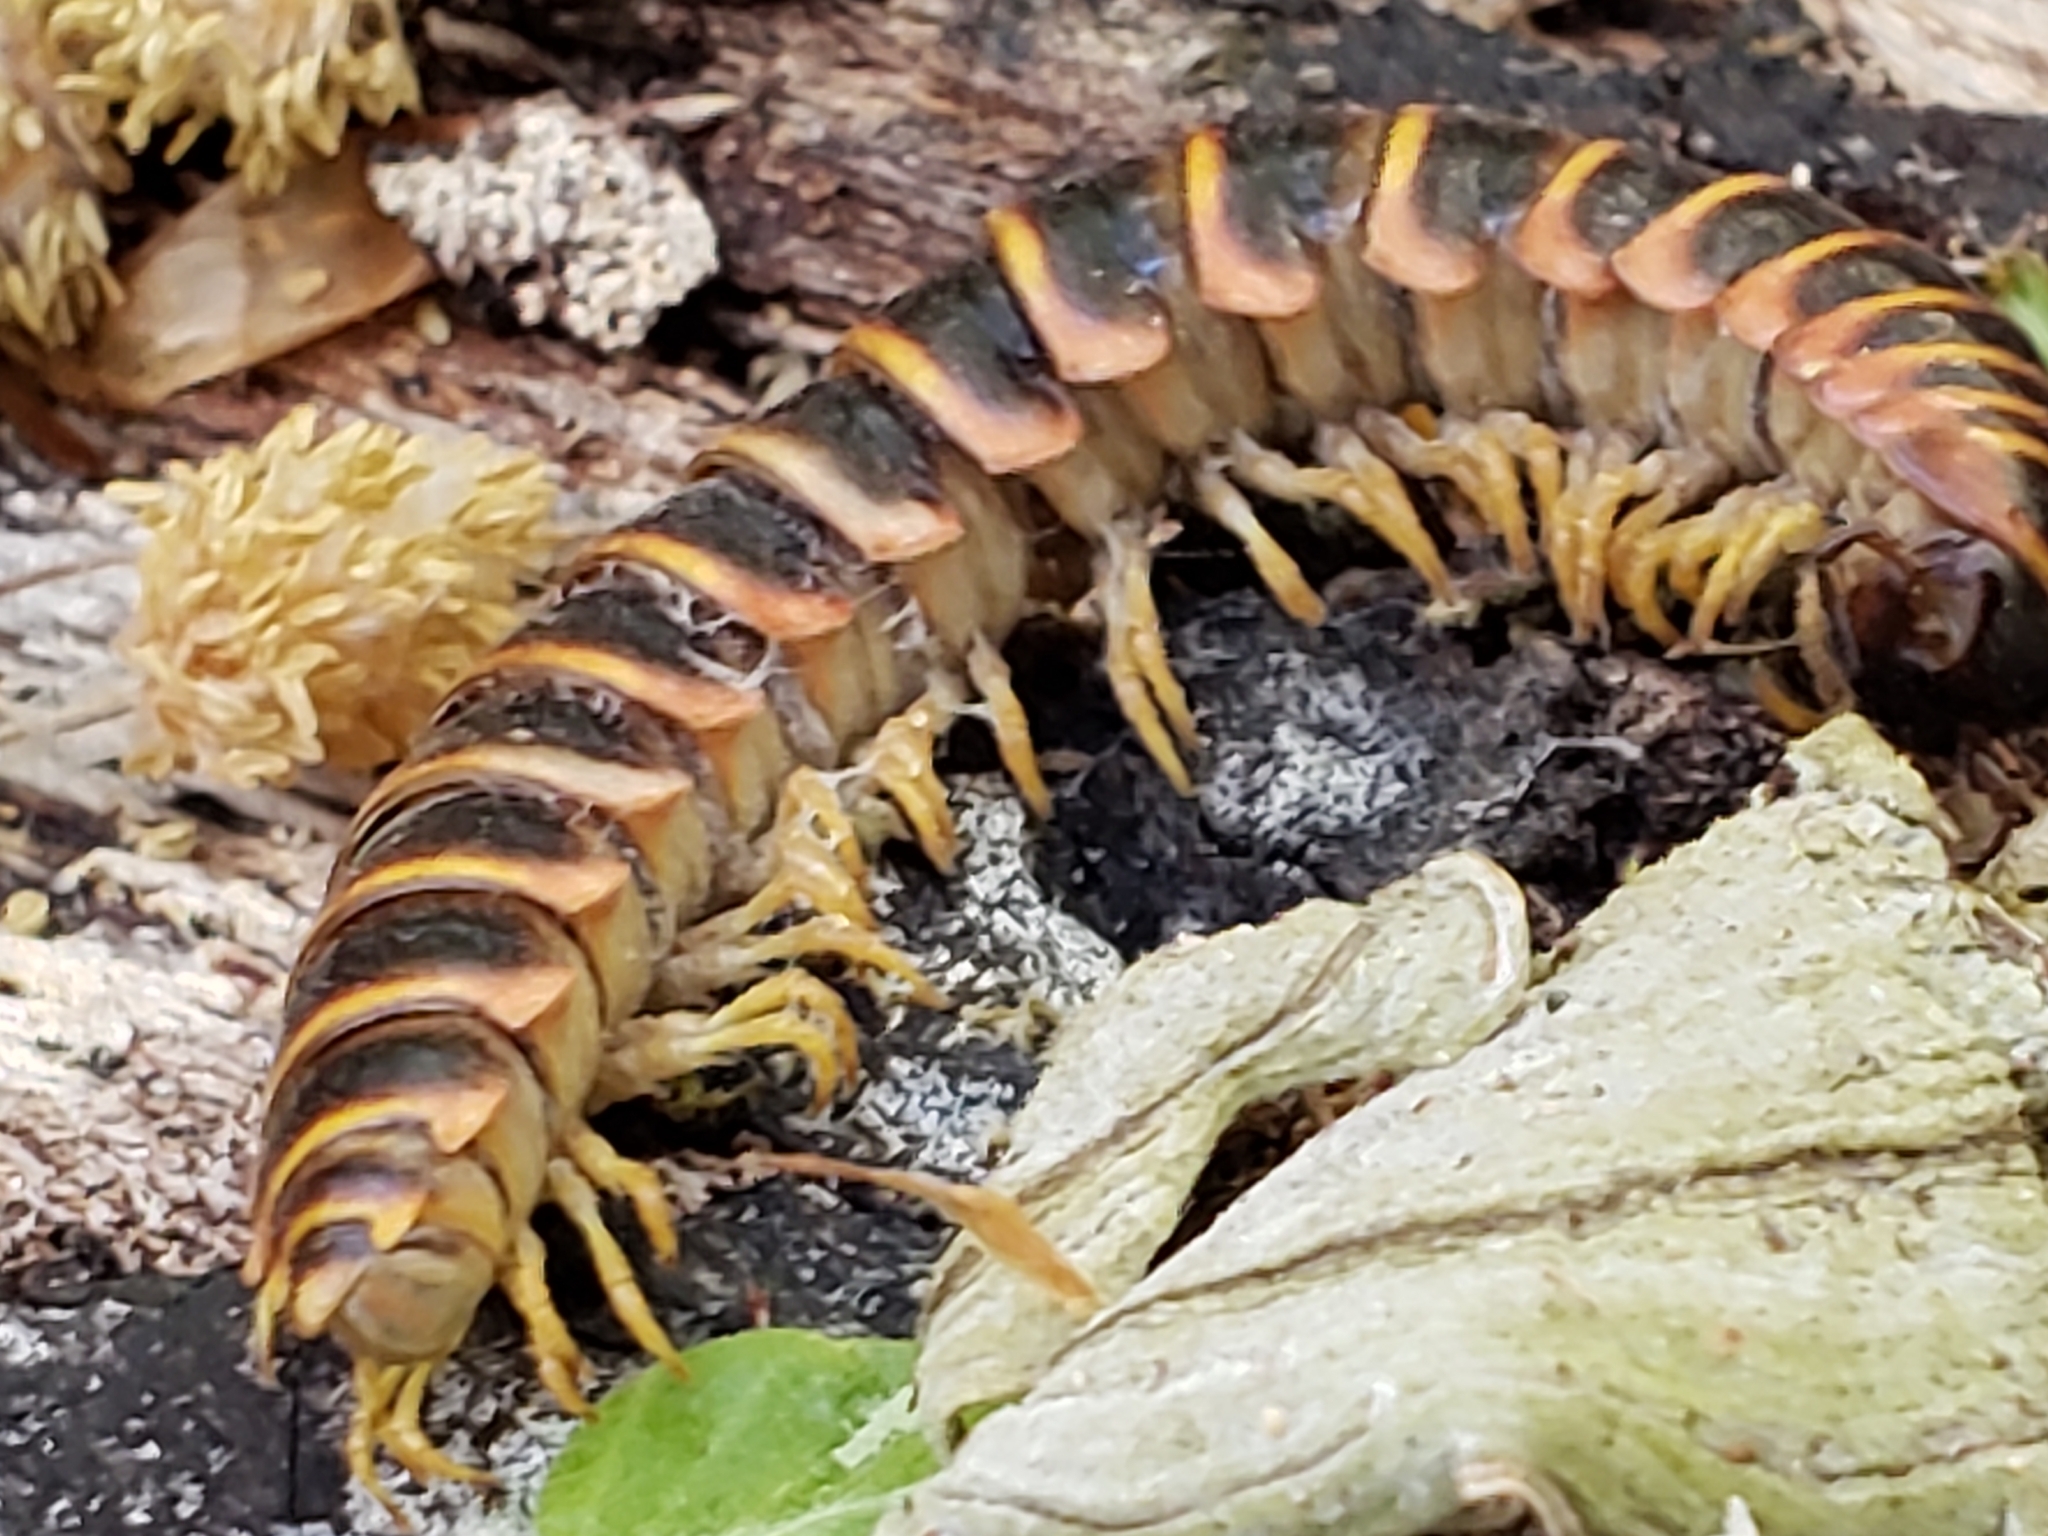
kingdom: Fungi
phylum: Entomophthoromycota
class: Entomophthoromycetes
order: Entomophthorales
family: Entomophthoraceae
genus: Arthrophaga
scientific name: Arthrophaga myriapodina
